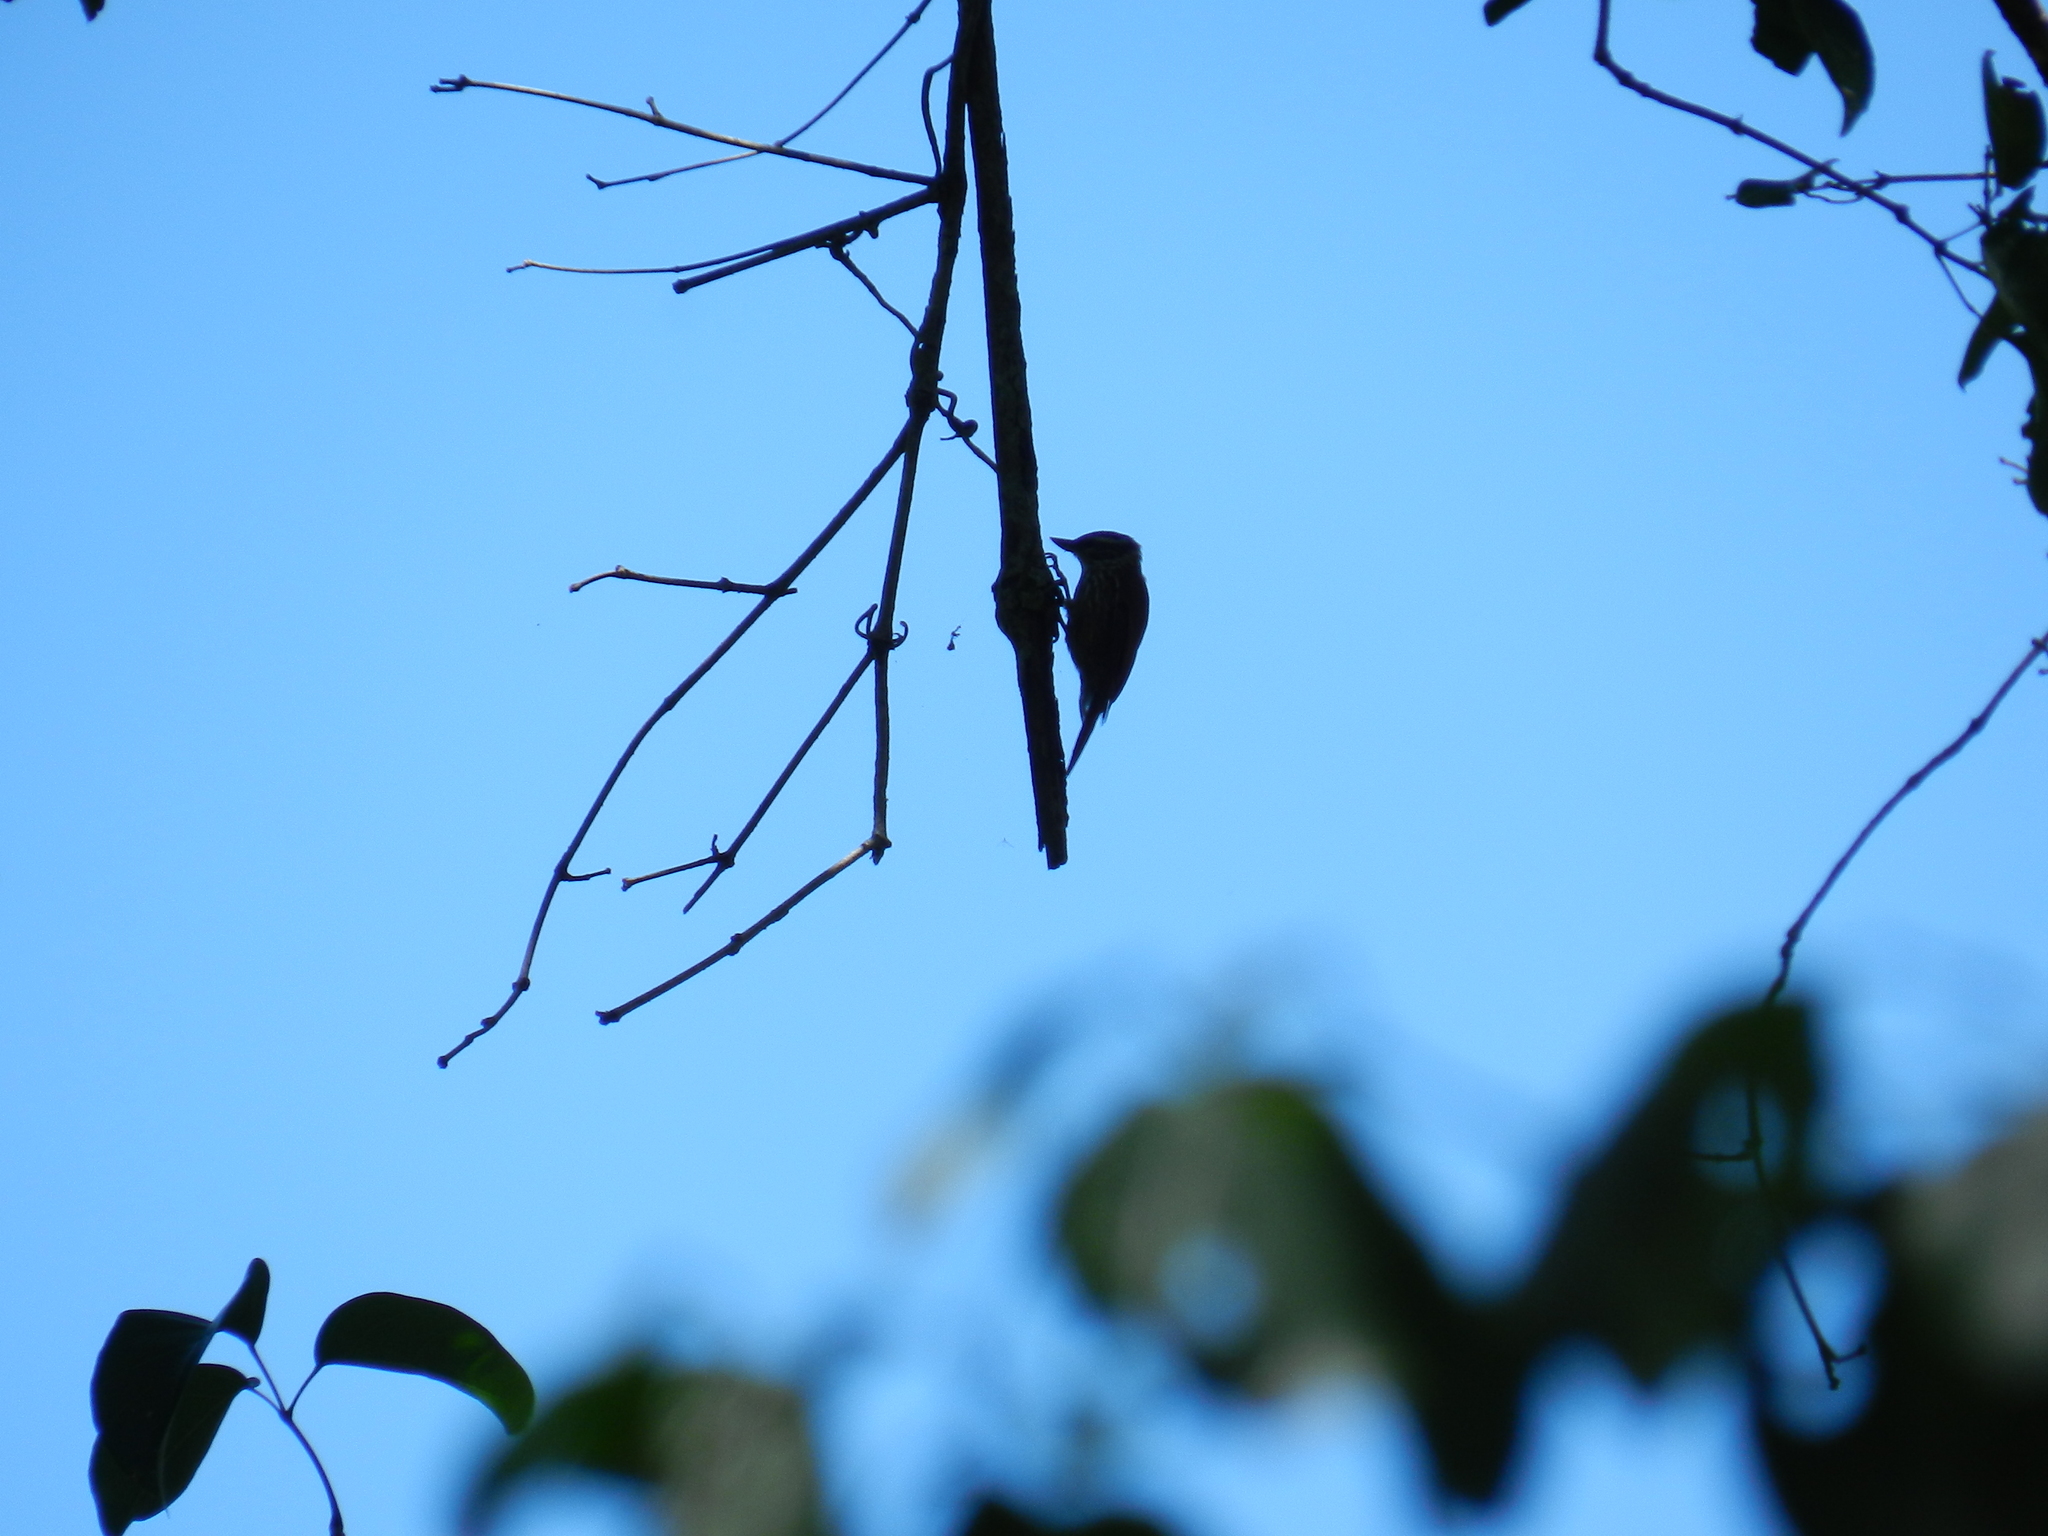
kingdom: Animalia
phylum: Chordata
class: Aves
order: Passeriformes
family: Furnariidae
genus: Xenops
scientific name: Xenops rutilans
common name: Streaked xenops
